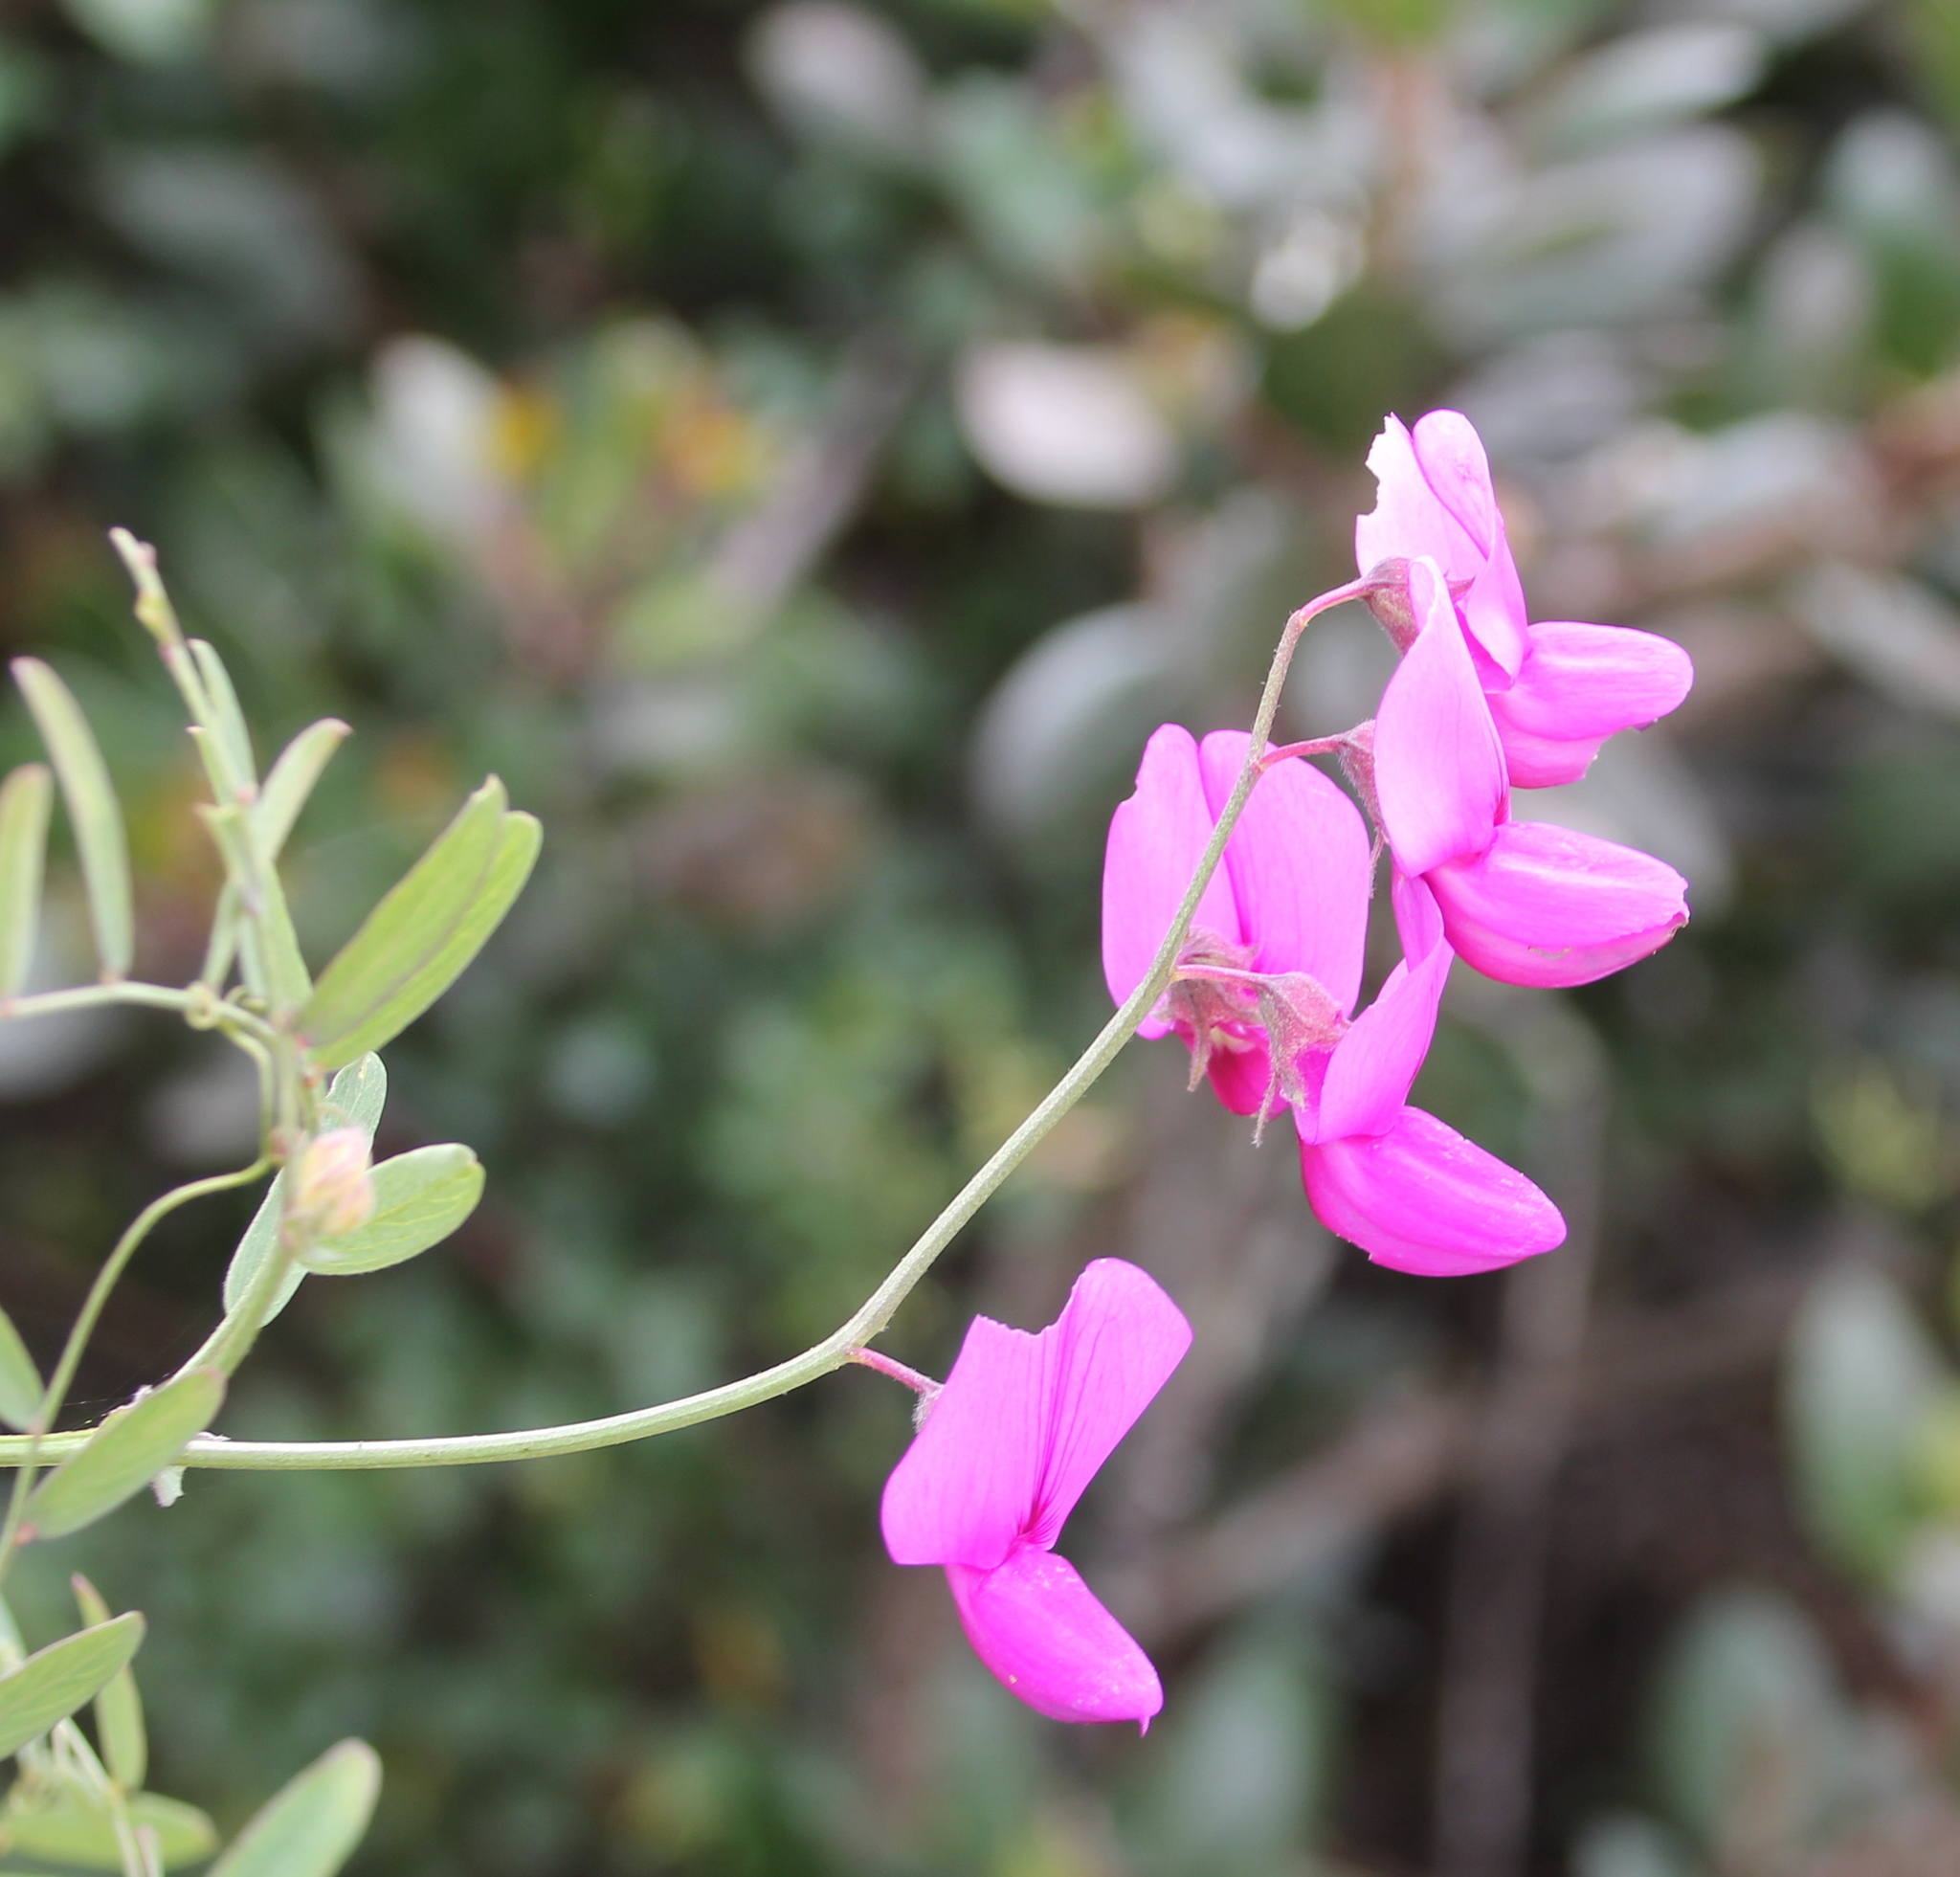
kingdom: Plantae
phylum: Tracheophyta
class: Magnoliopsida
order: Fabales
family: Fabaceae
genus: Lathyrus
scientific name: Lathyrus vestitus
